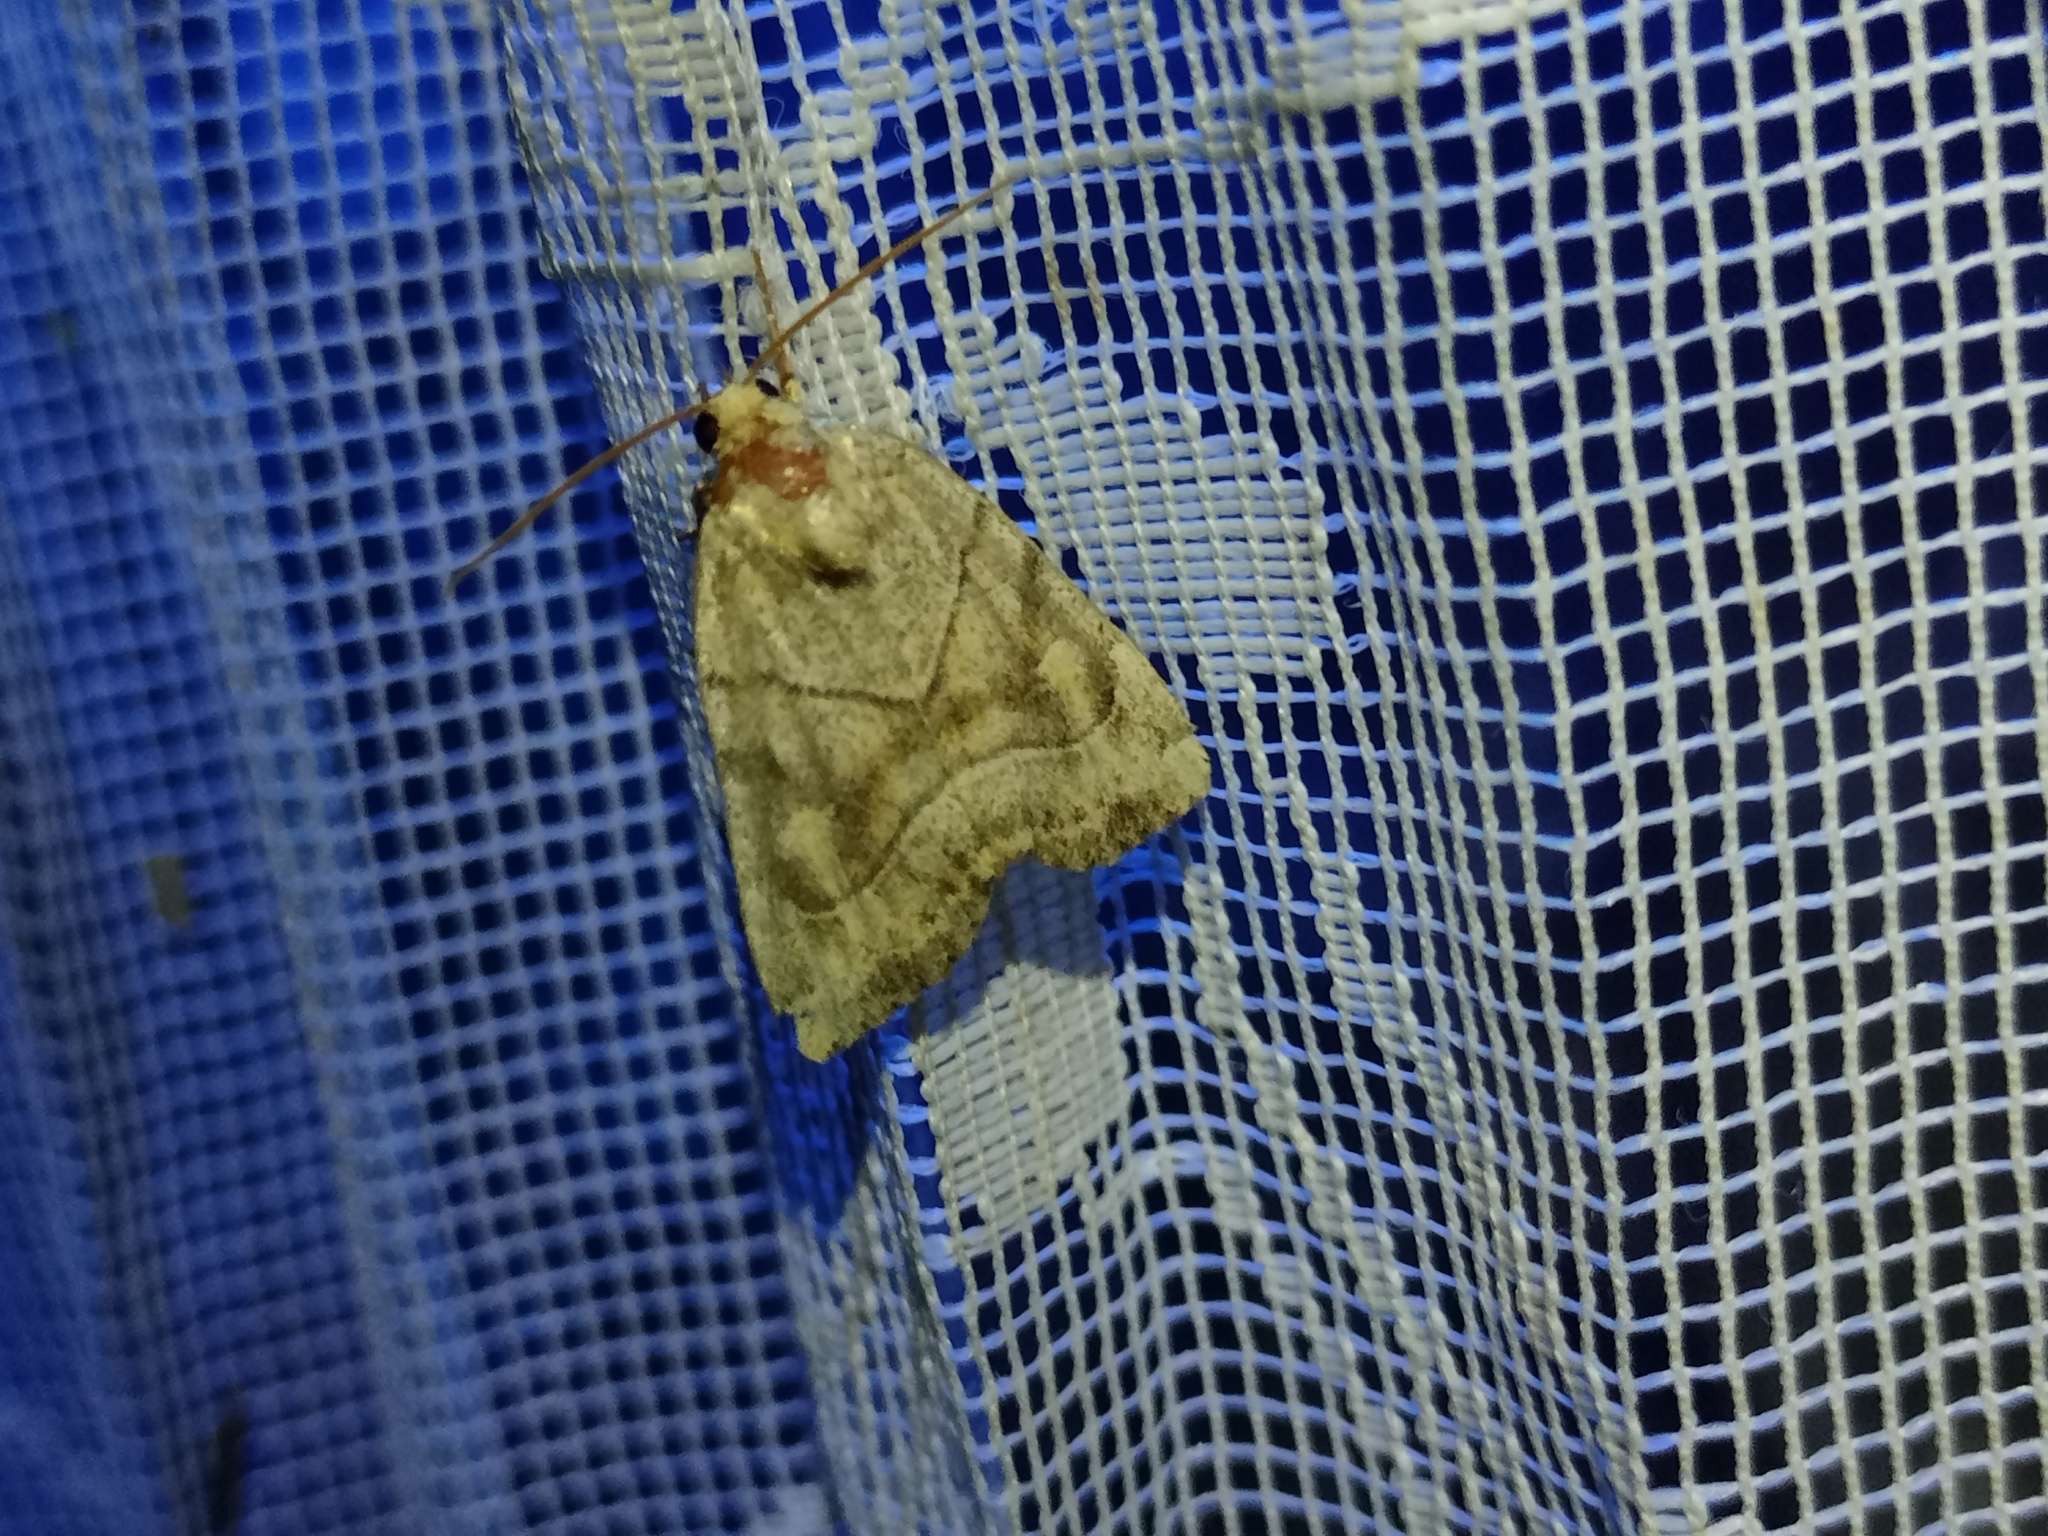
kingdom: Animalia
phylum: Arthropoda
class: Insecta
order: Lepidoptera
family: Noctuidae
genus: Cosmia
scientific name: Cosmia trapezina
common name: Dun-bar
